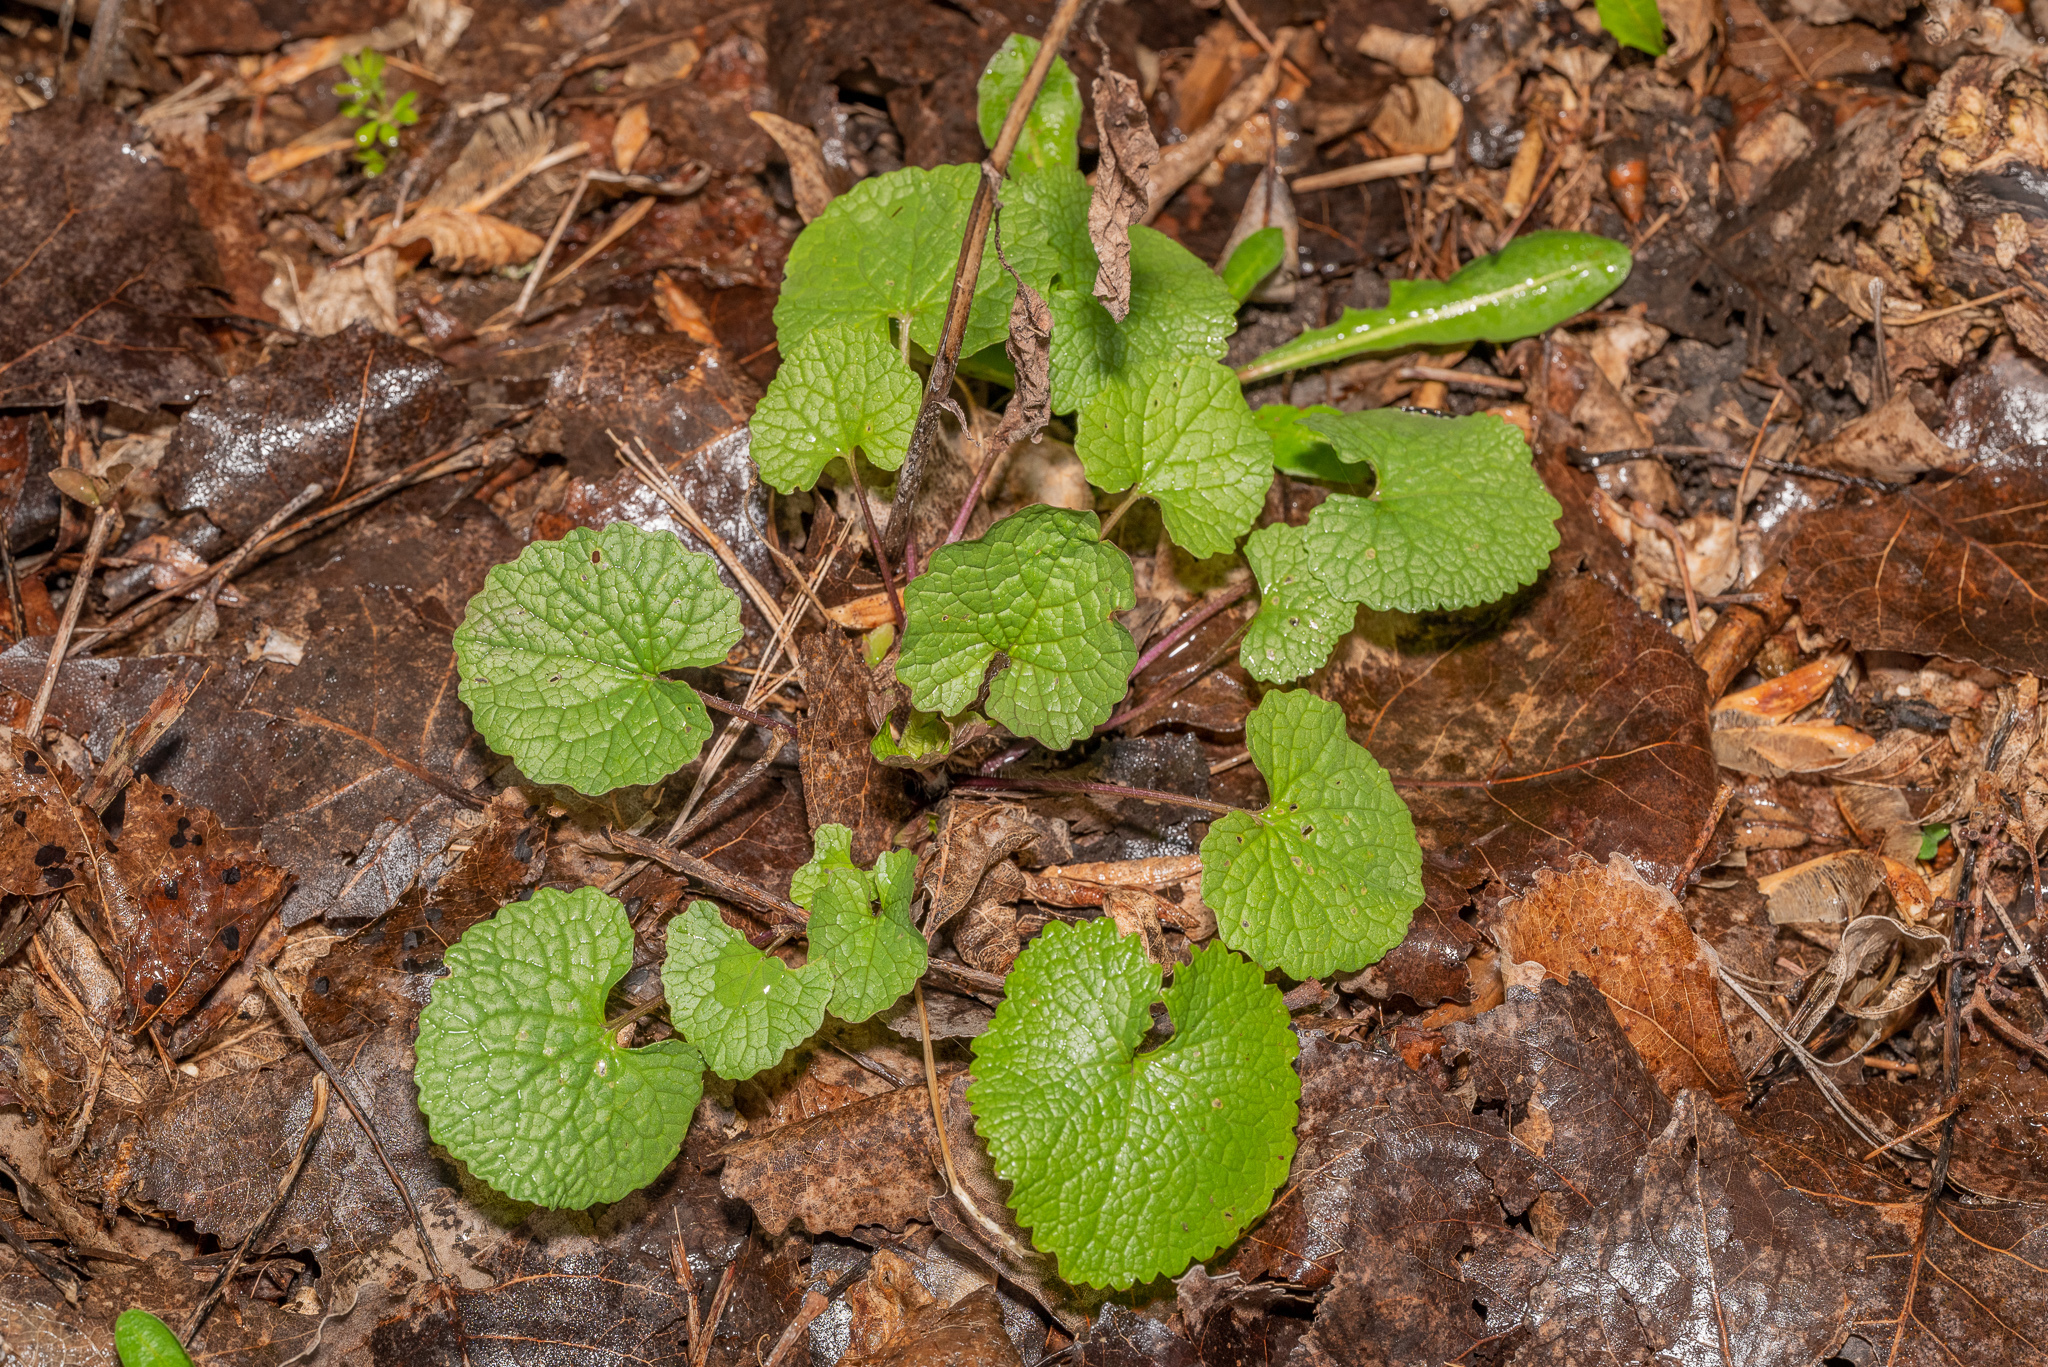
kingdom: Plantae
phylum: Tracheophyta
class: Magnoliopsida
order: Brassicales
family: Brassicaceae
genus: Alliaria
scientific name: Alliaria petiolata
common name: Garlic mustard
